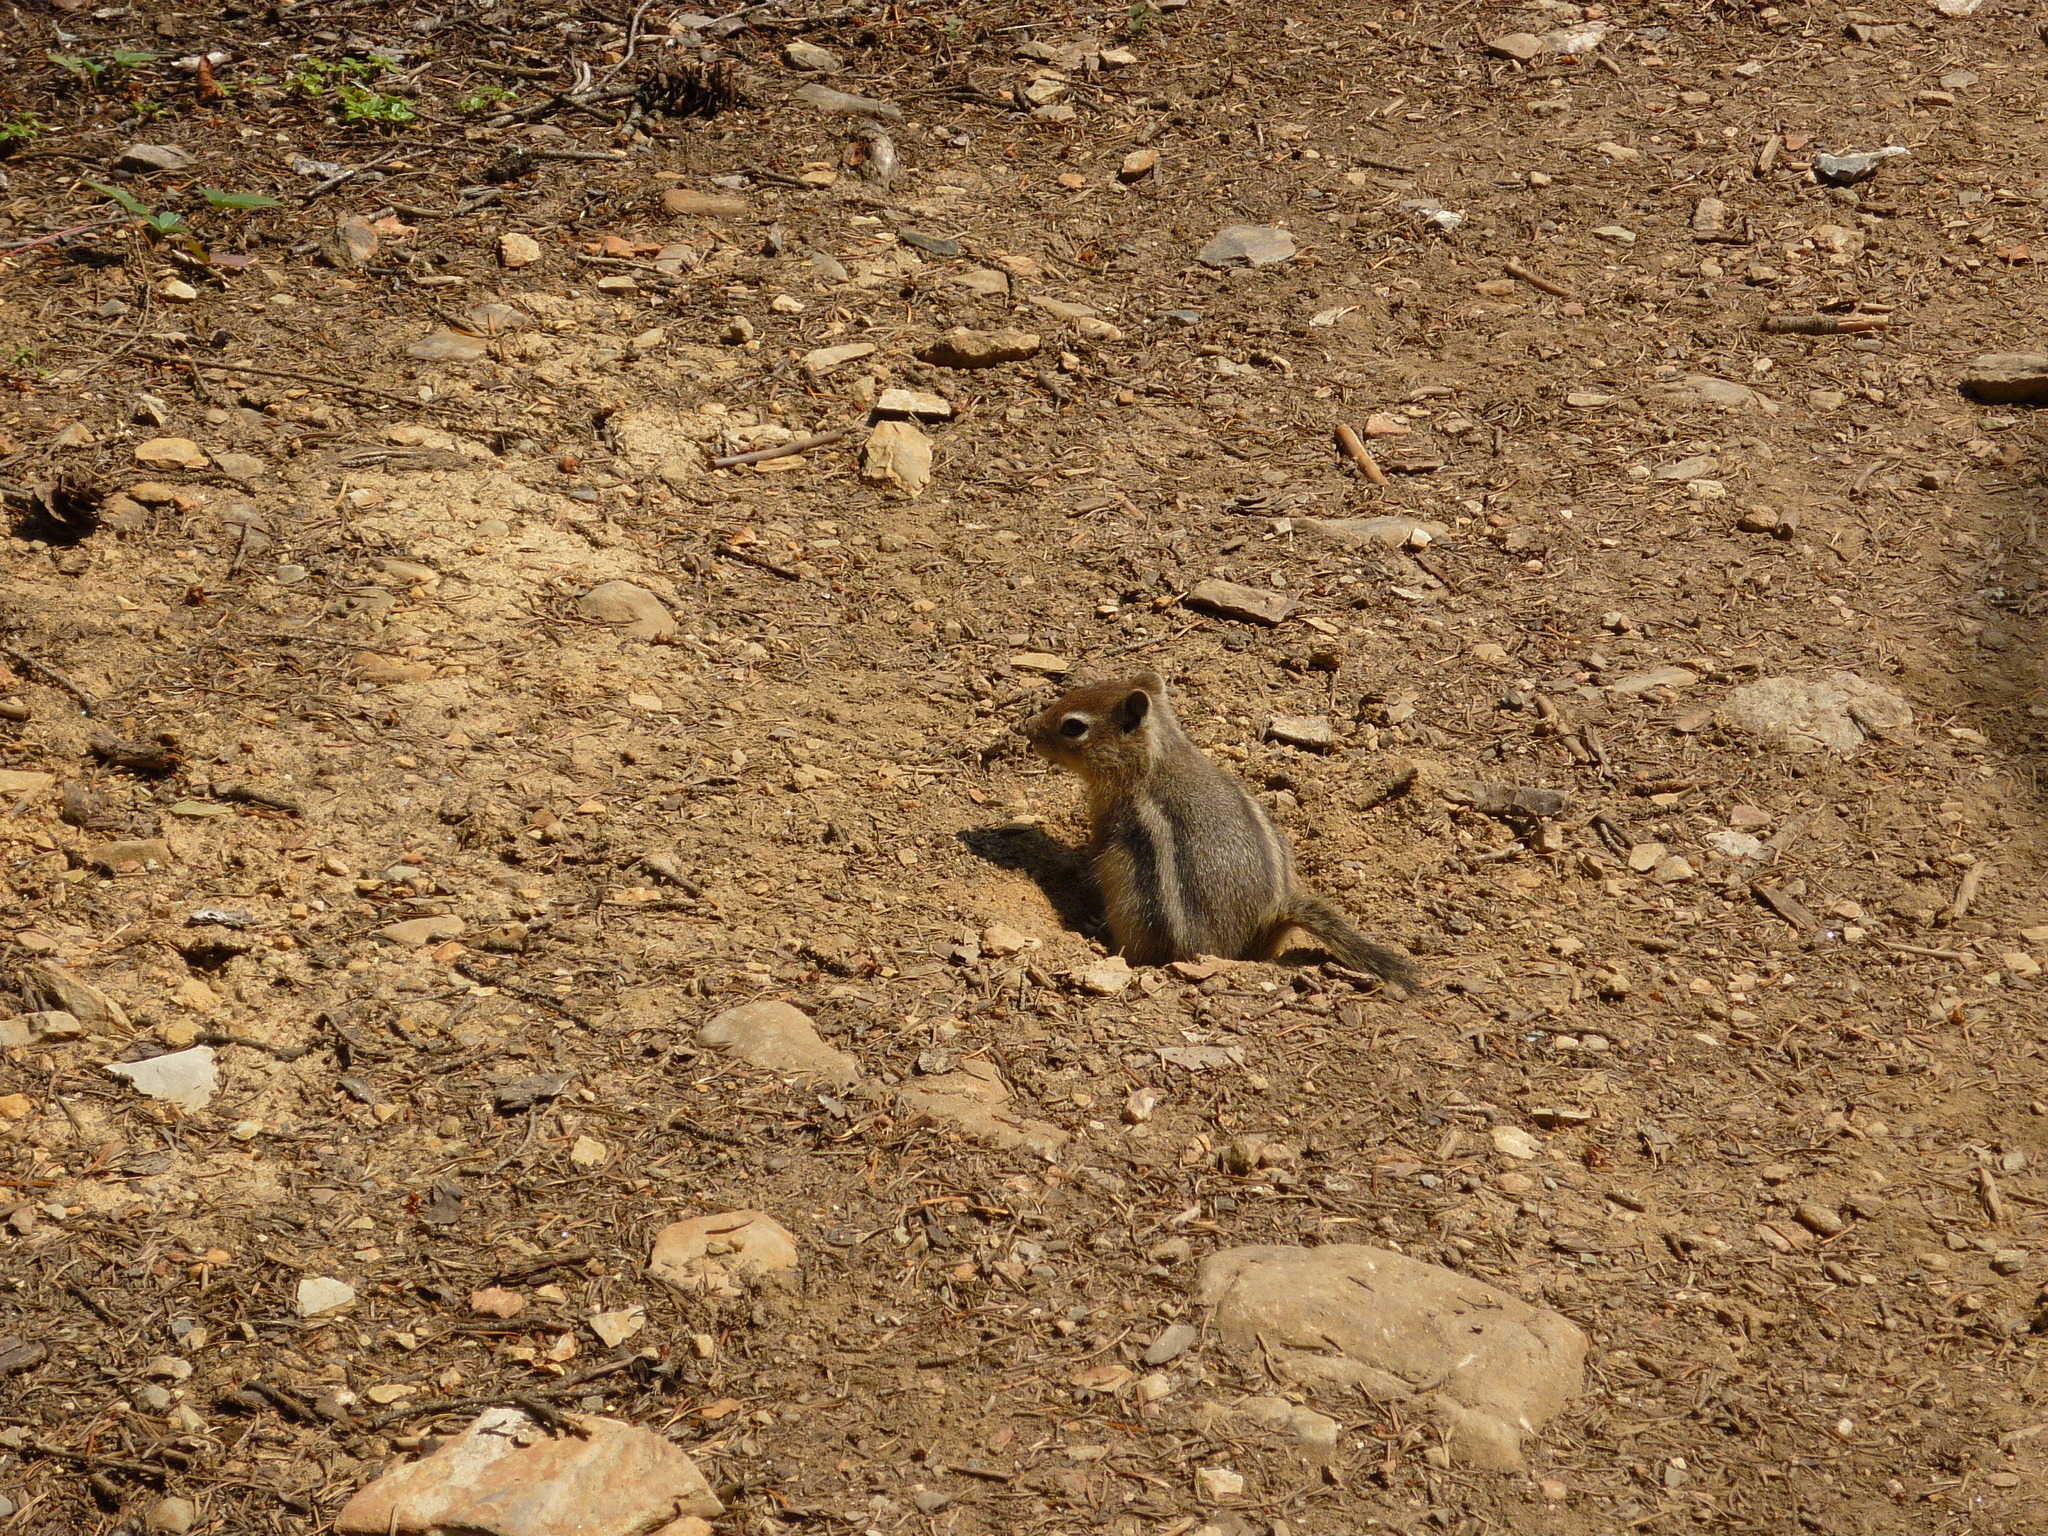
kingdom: Animalia
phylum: Chordata
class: Mammalia
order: Rodentia
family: Sciuridae
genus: Callospermophilus
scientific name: Callospermophilus lateralis
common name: Golden-mantled ground squirrel
